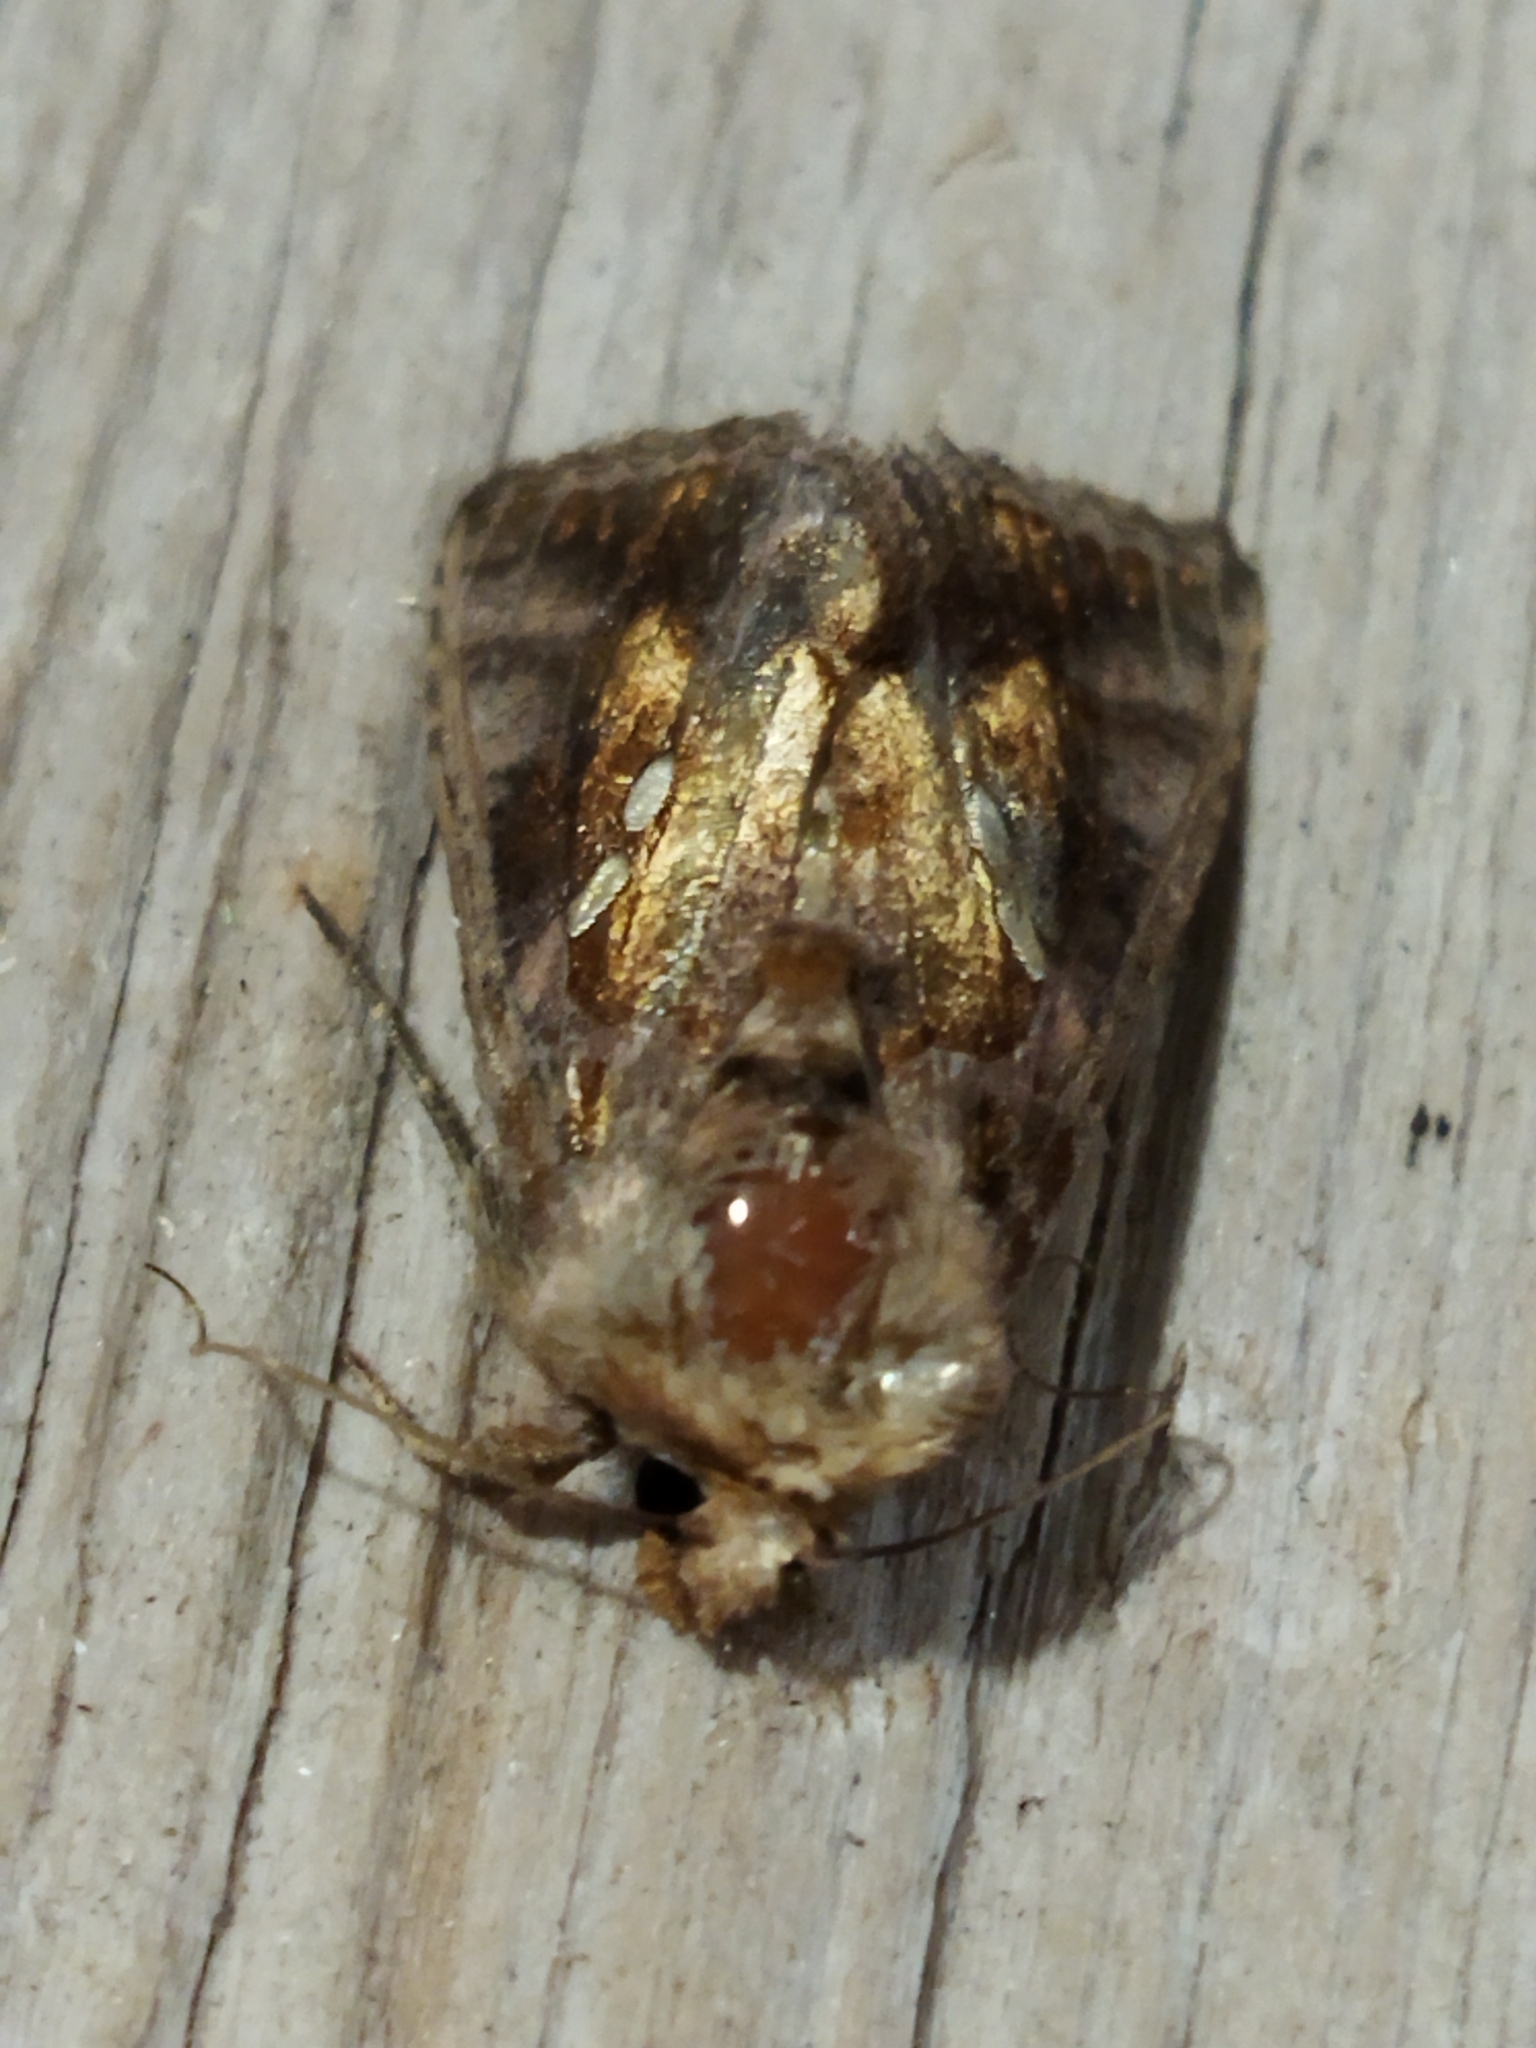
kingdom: Animalia
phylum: Arthropoda
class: Insecta
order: Lepidoptera
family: Noctuidae
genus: Chrysodeixis
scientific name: Chrysodeixis chalcites
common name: Golden twin-spot
